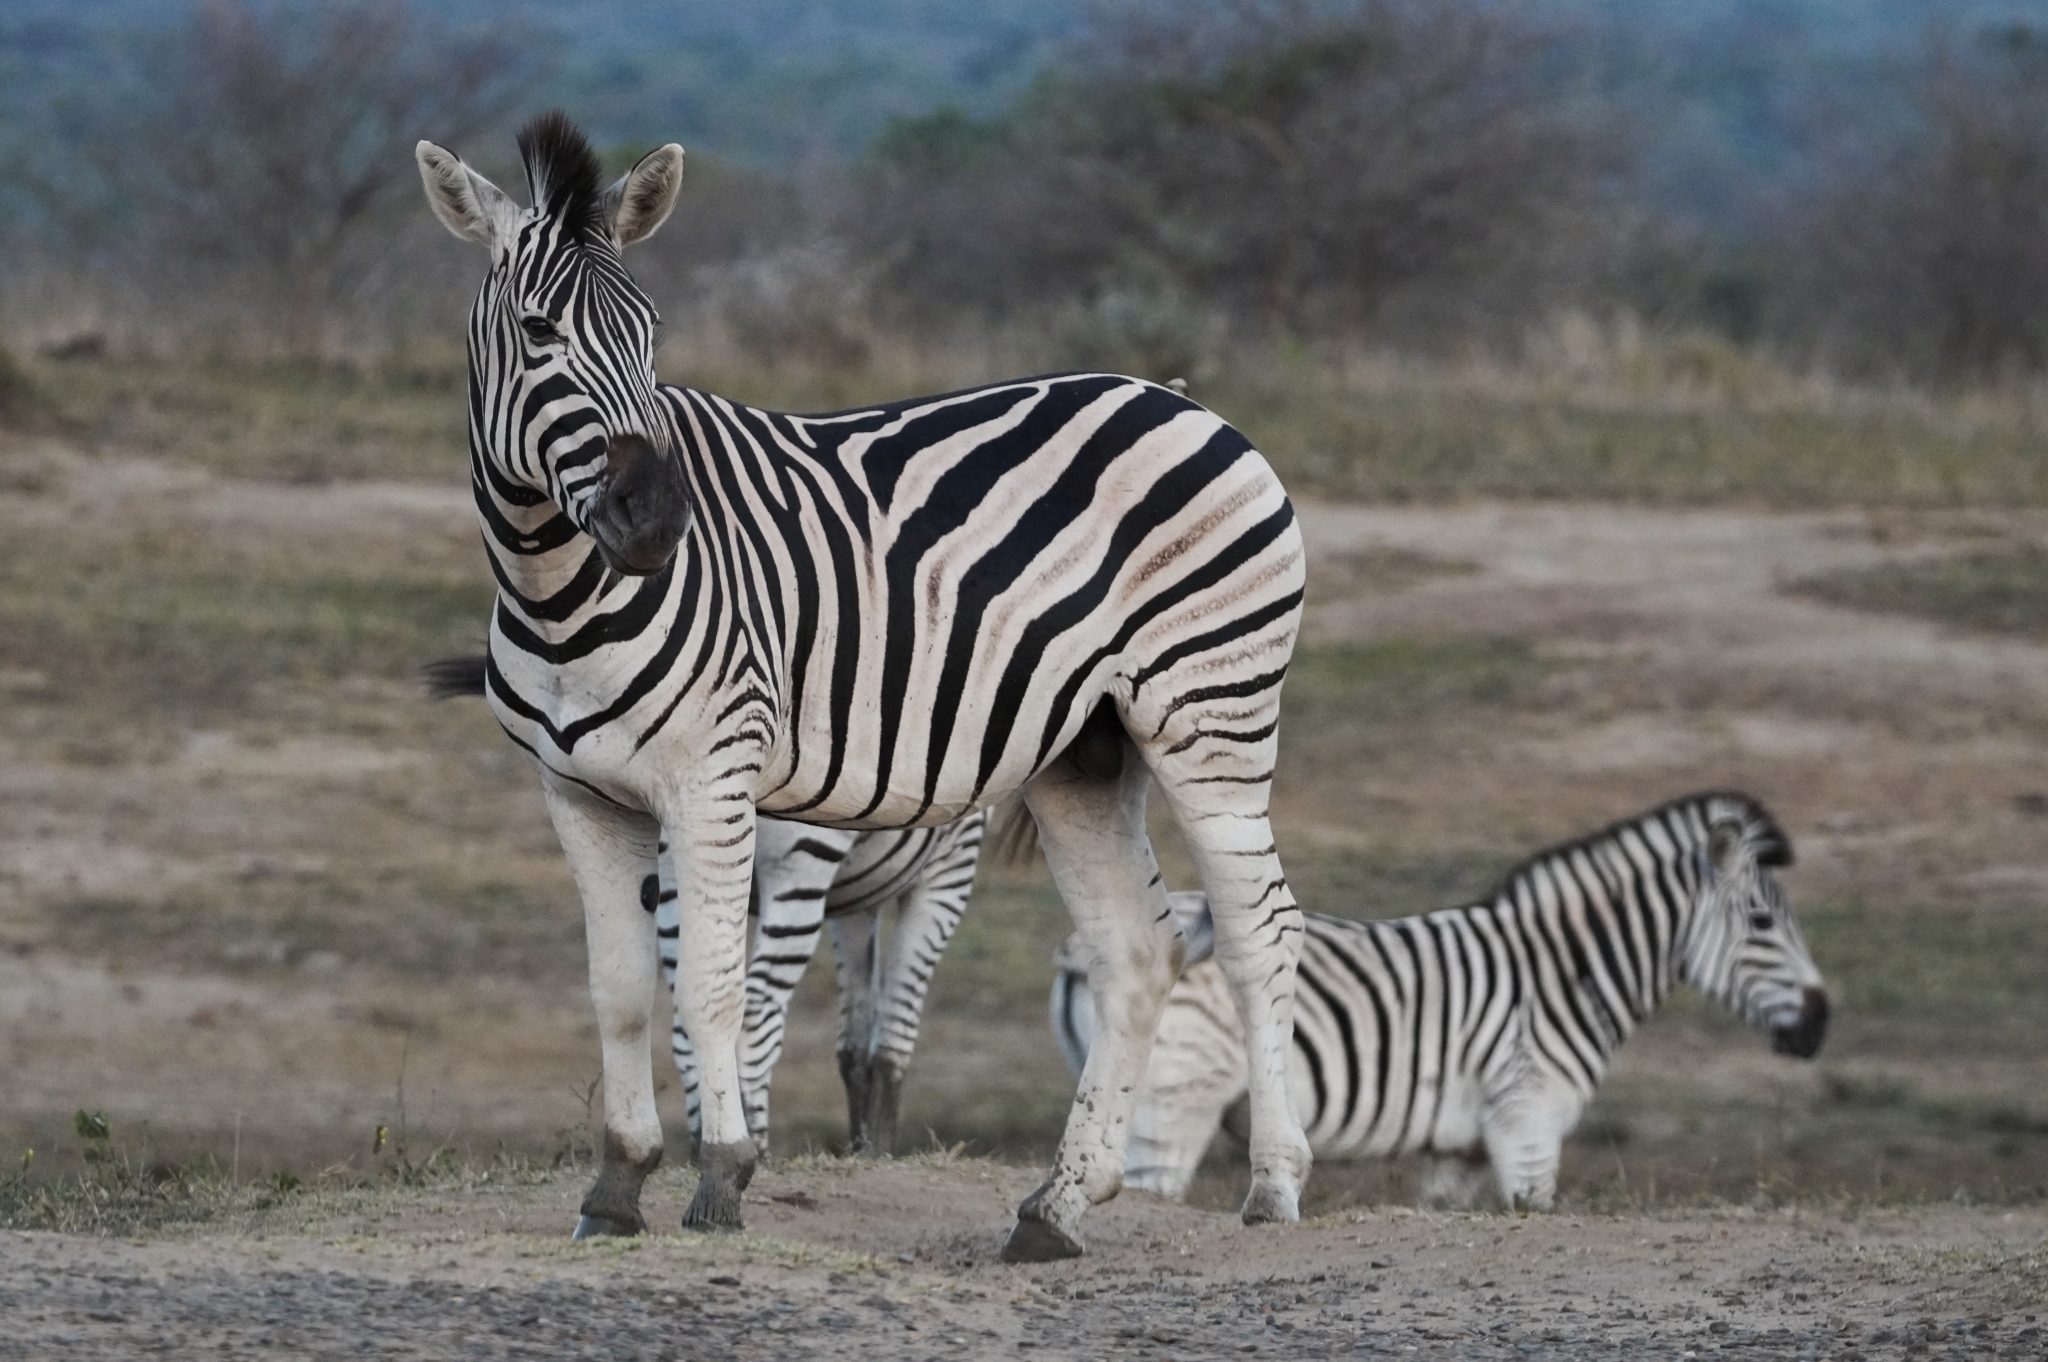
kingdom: Animalia
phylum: Chordata
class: Mammalia
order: Perissodactyla
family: Equidae
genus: Equus
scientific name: Equus quagga
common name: Plains zebra
